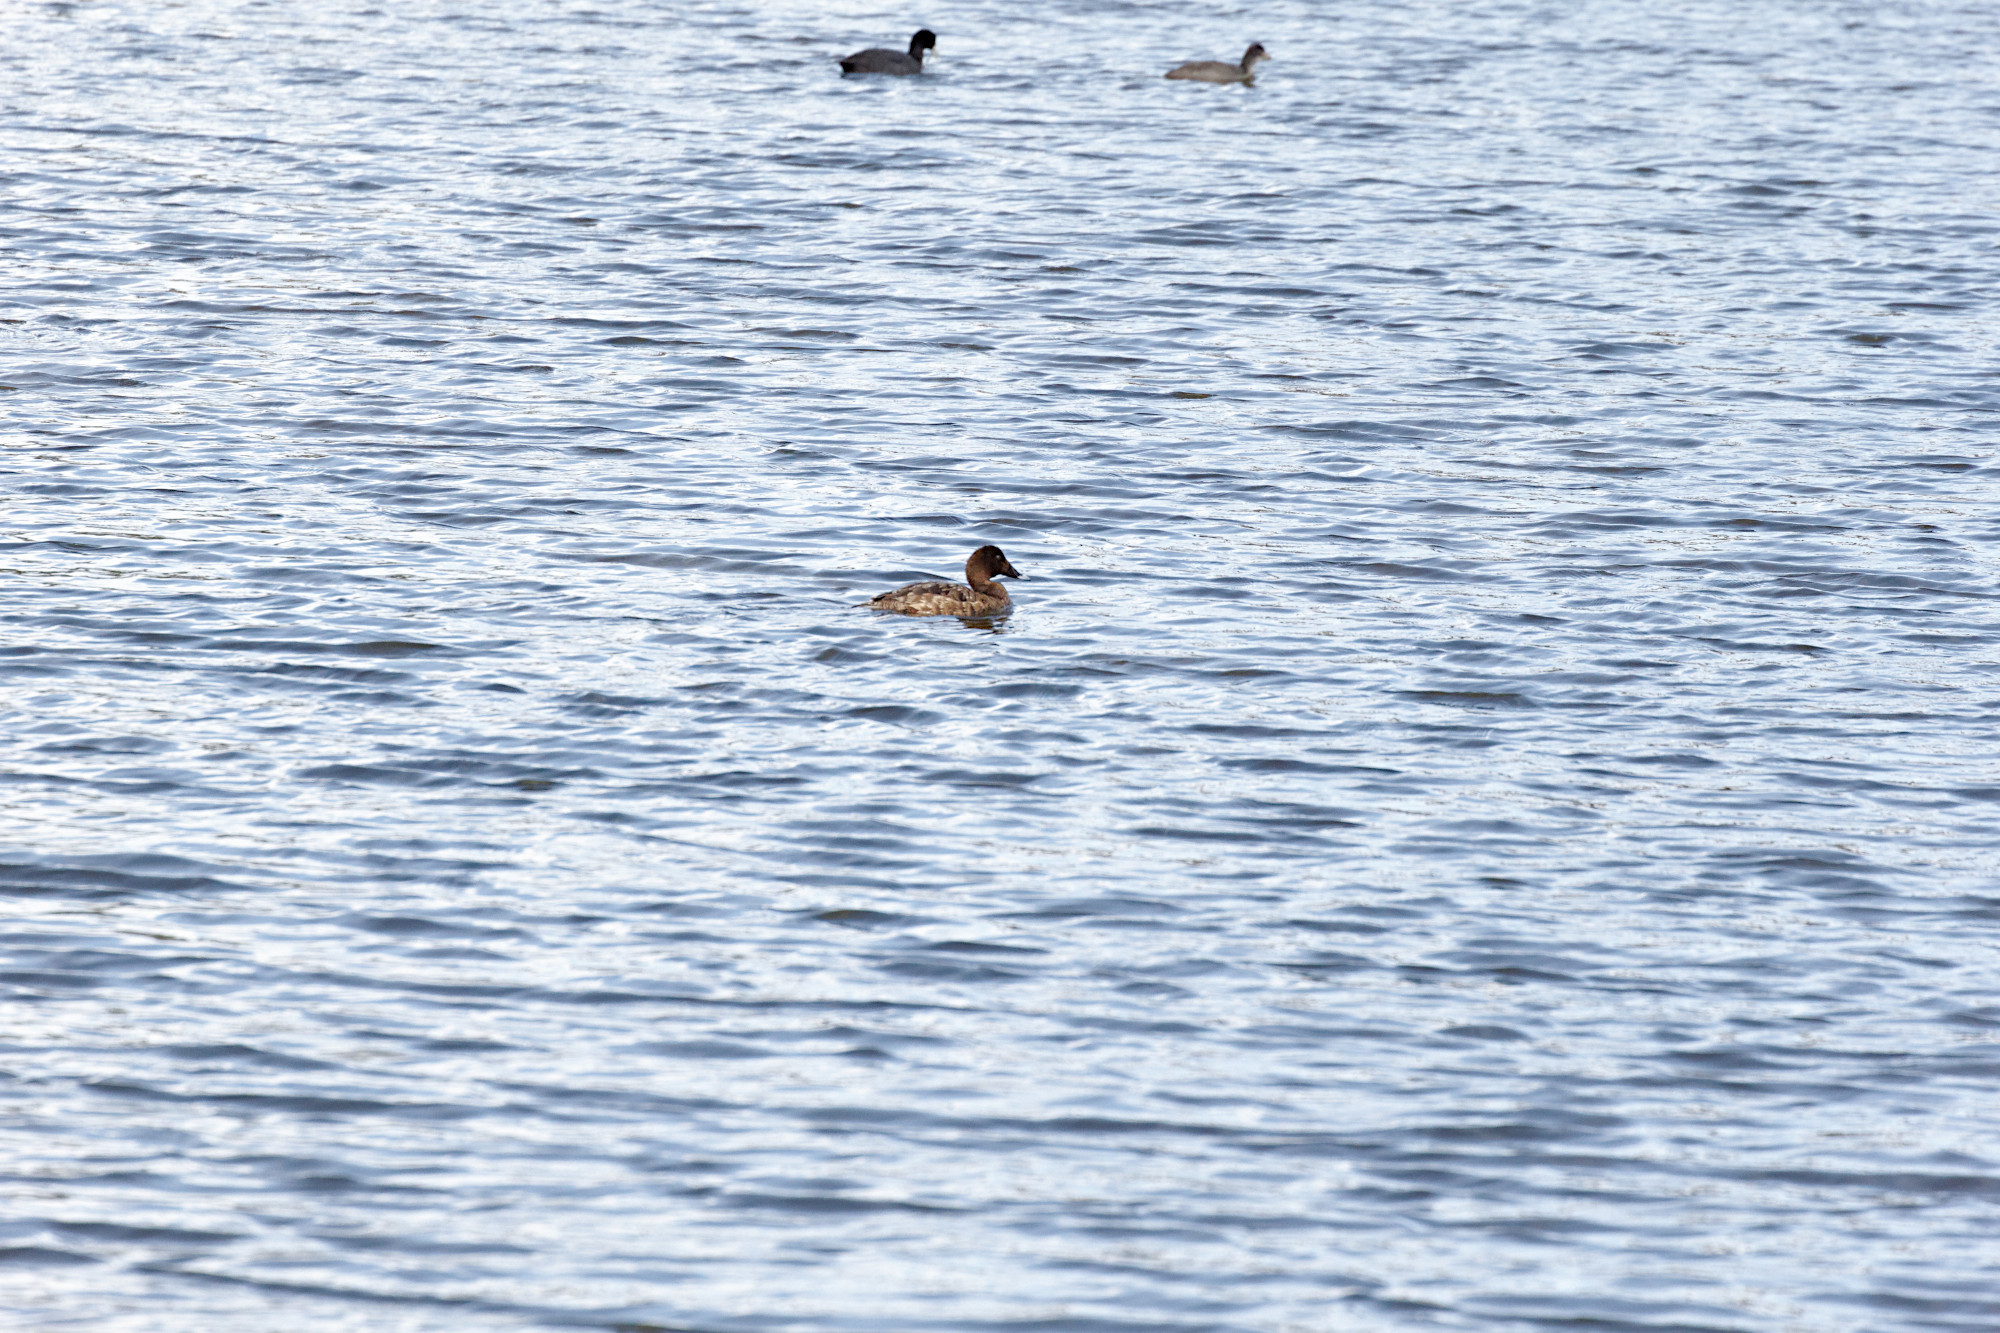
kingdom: Animalia
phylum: Chordata
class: Aves
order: Anseriformes
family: Anatidae
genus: Aythya
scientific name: Aythya australis
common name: Hardhead
